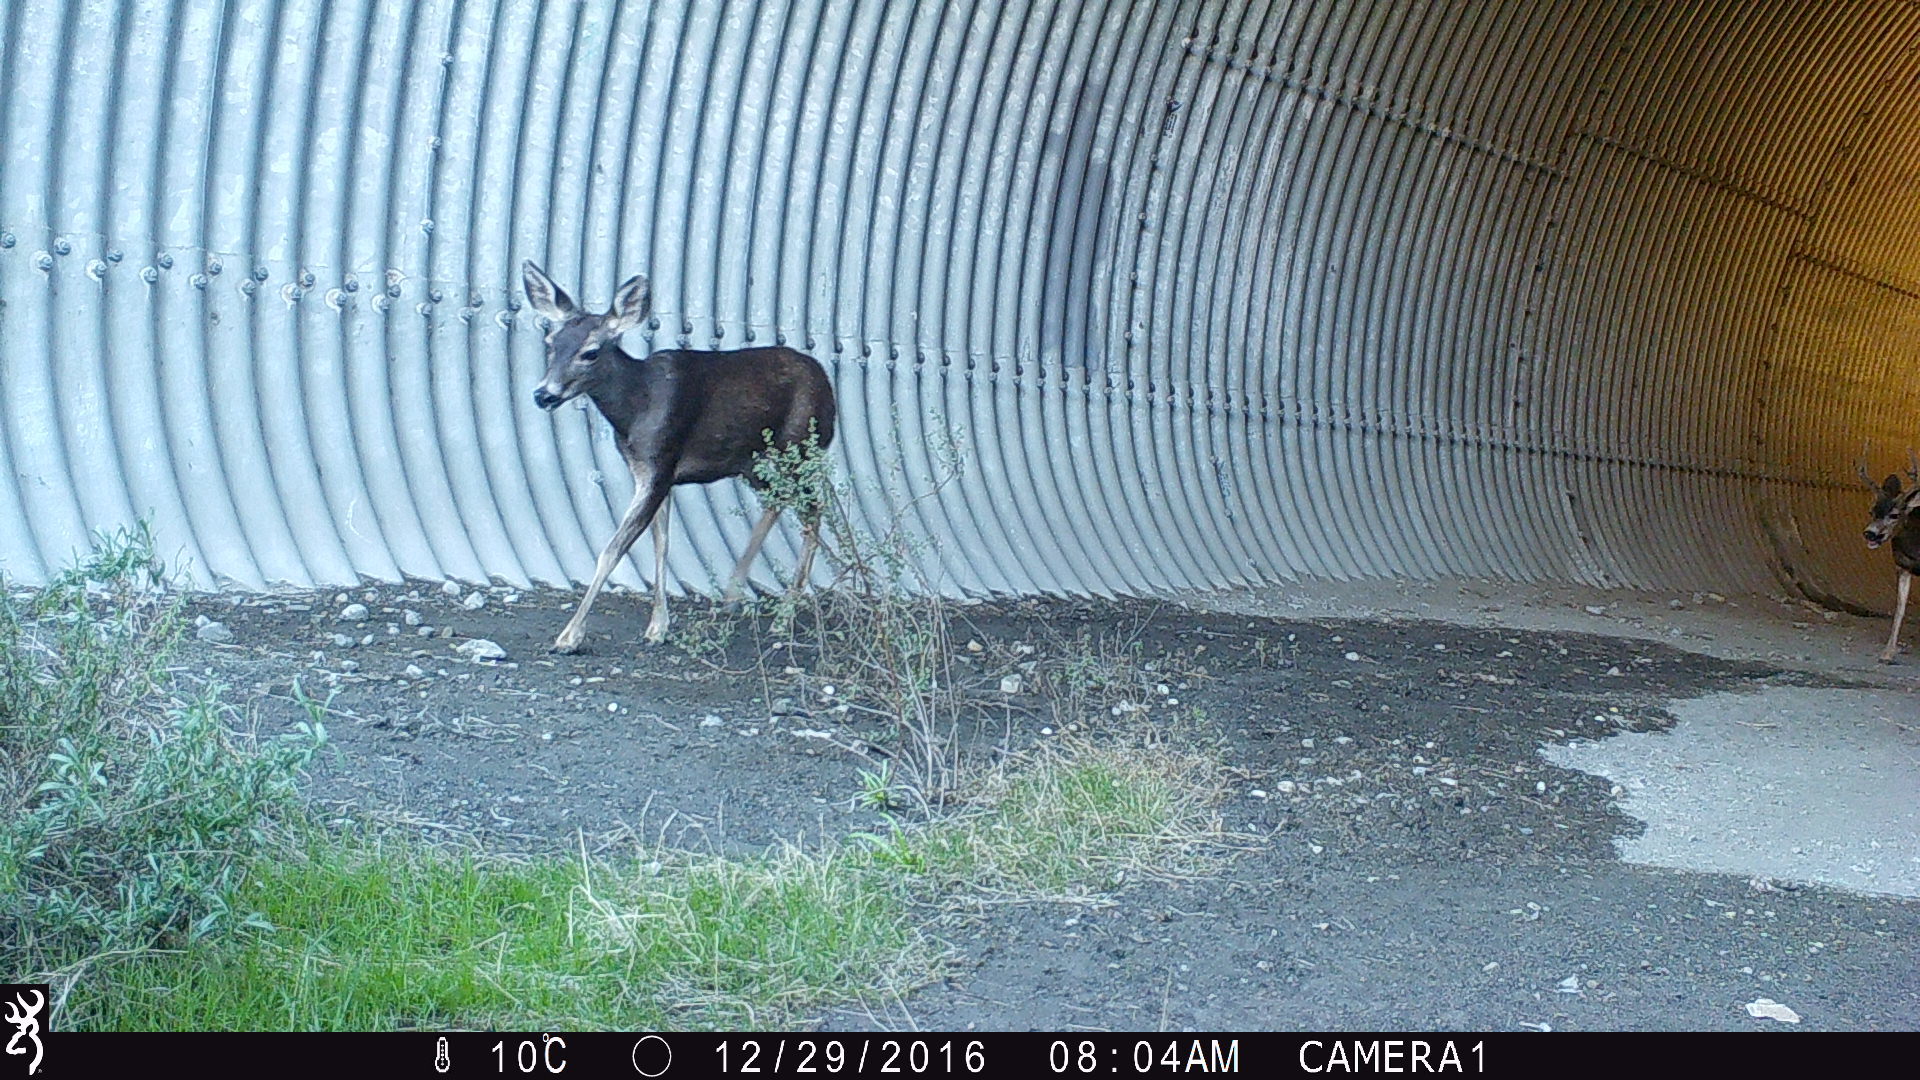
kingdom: Animalia
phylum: Chordata
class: Mammalia
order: Artiodactyla
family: Cervidae
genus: Odocoileus
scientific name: Odocoileus hemionus
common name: Mule deer
